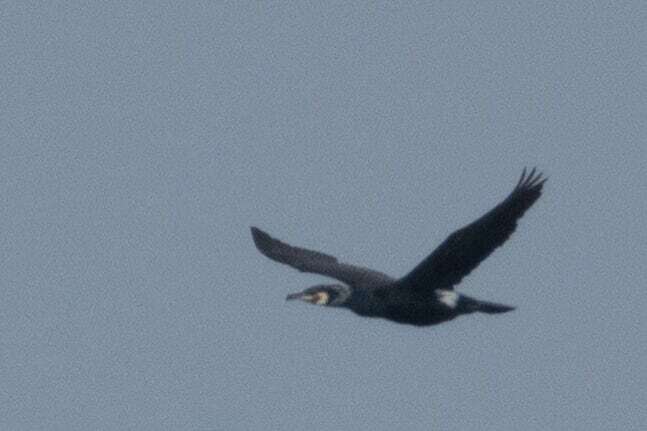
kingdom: Animalia
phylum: Chordata
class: Aves
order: Suliformes
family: Phalacrocoracidae
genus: Phalacrocorax
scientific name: Phalacrocorax carbo
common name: Great cormorant
